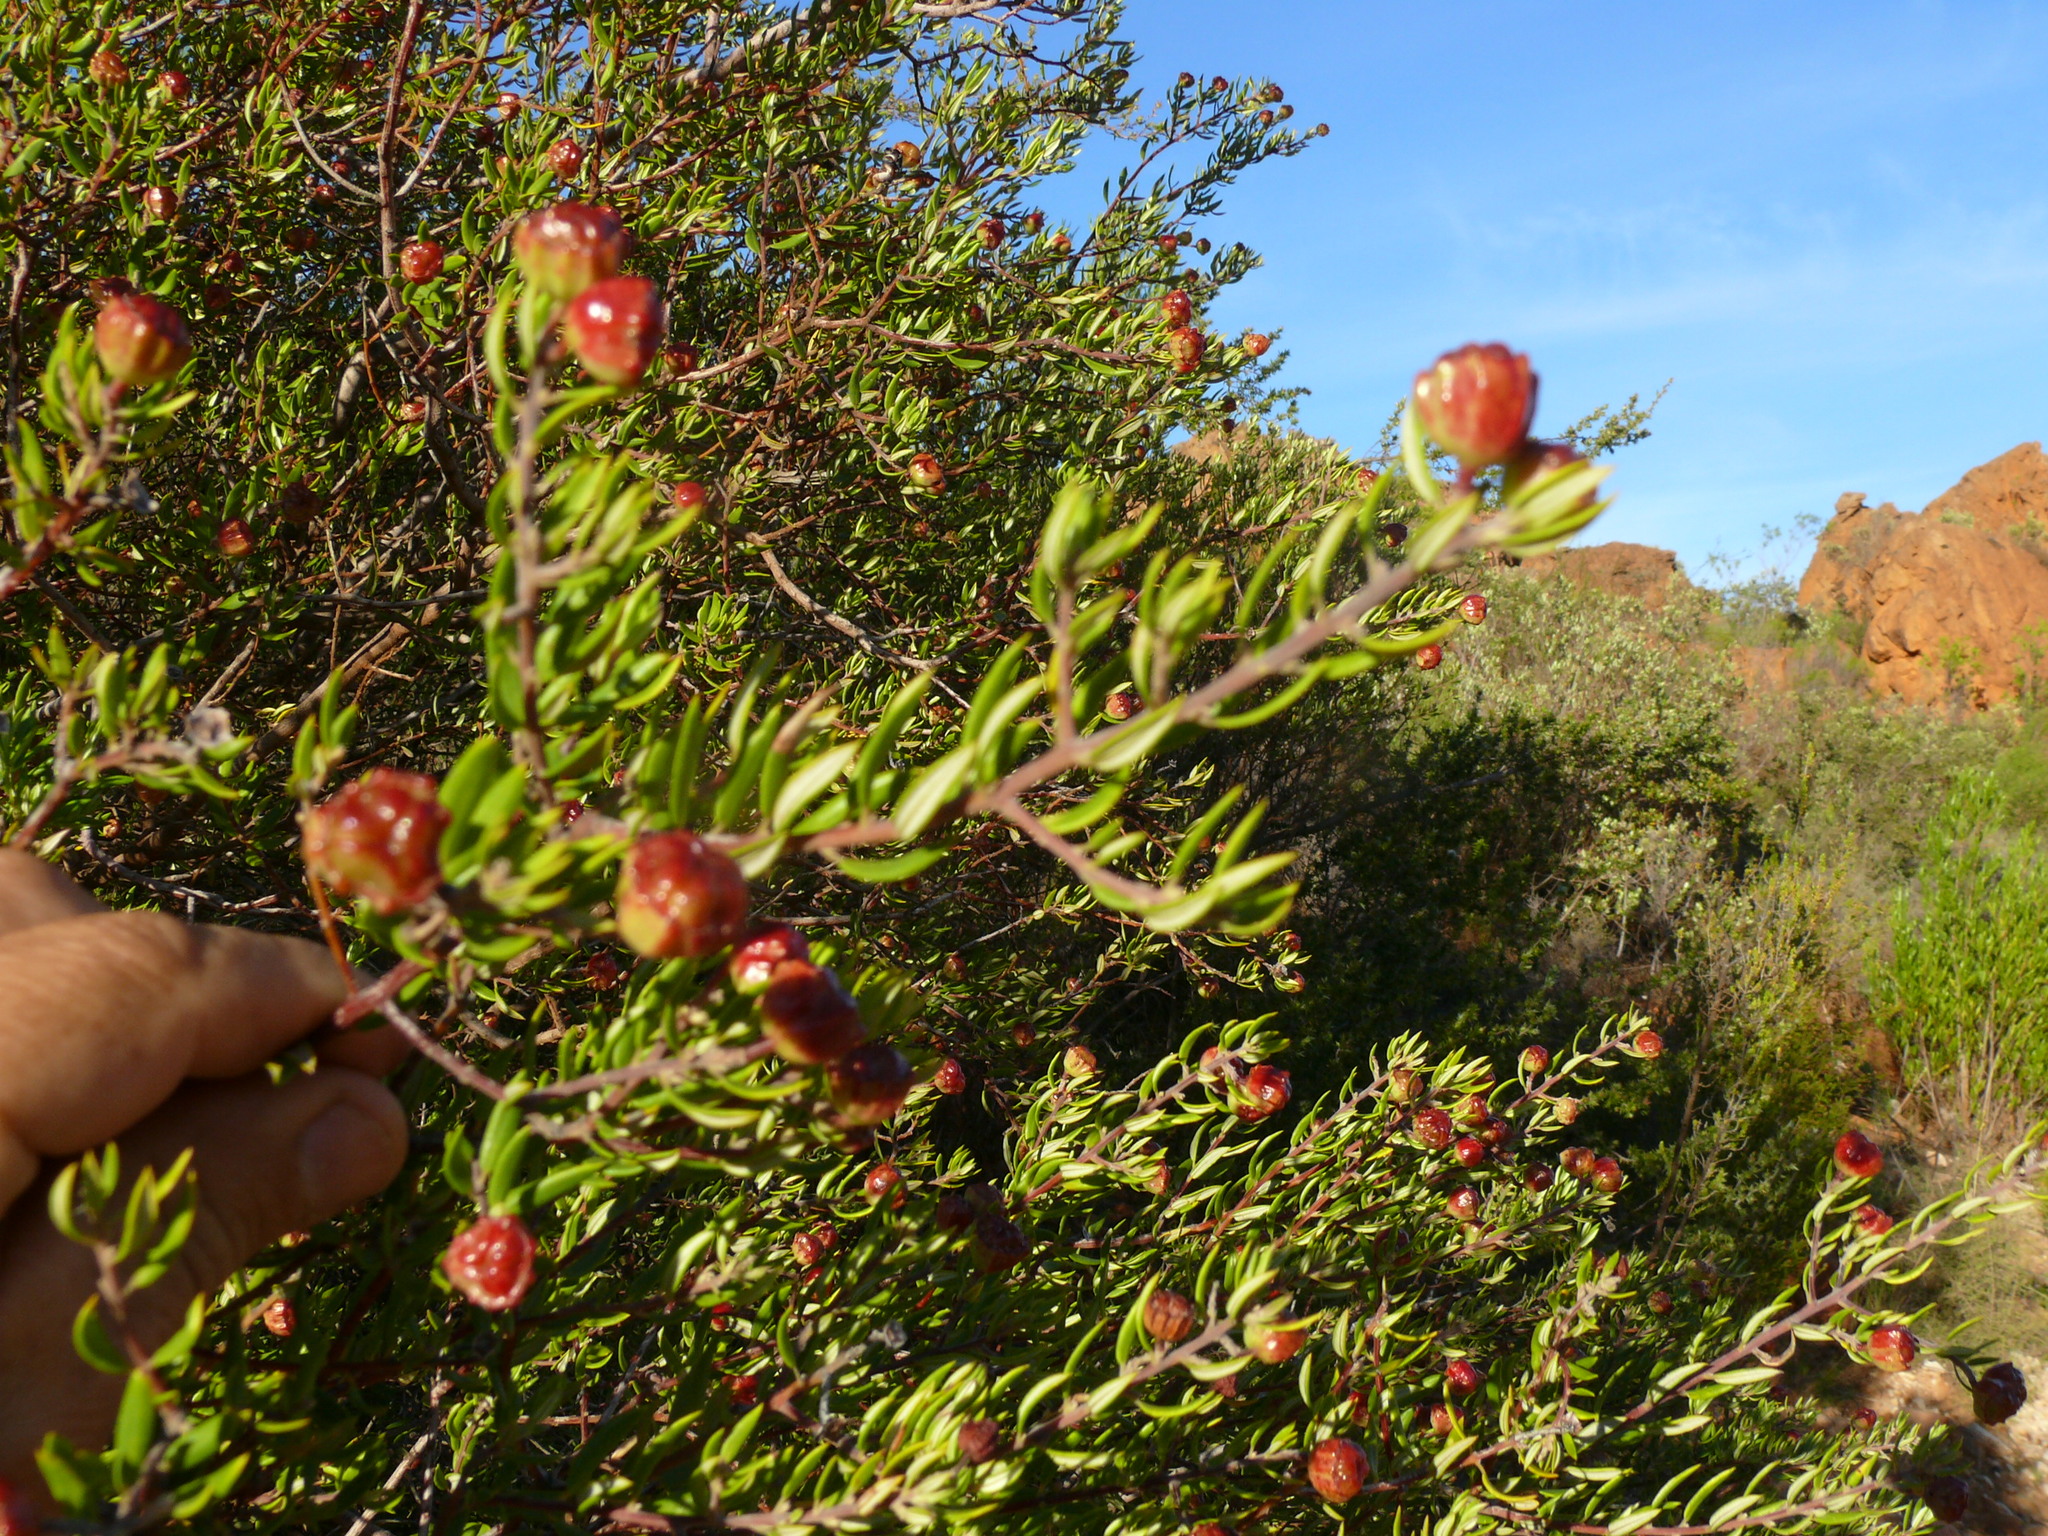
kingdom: Plantae
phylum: Tracheophyta
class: Magnoliopsida
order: Rosales
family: Rhamnaceae
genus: Phylica
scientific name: Phylica oleifolia
